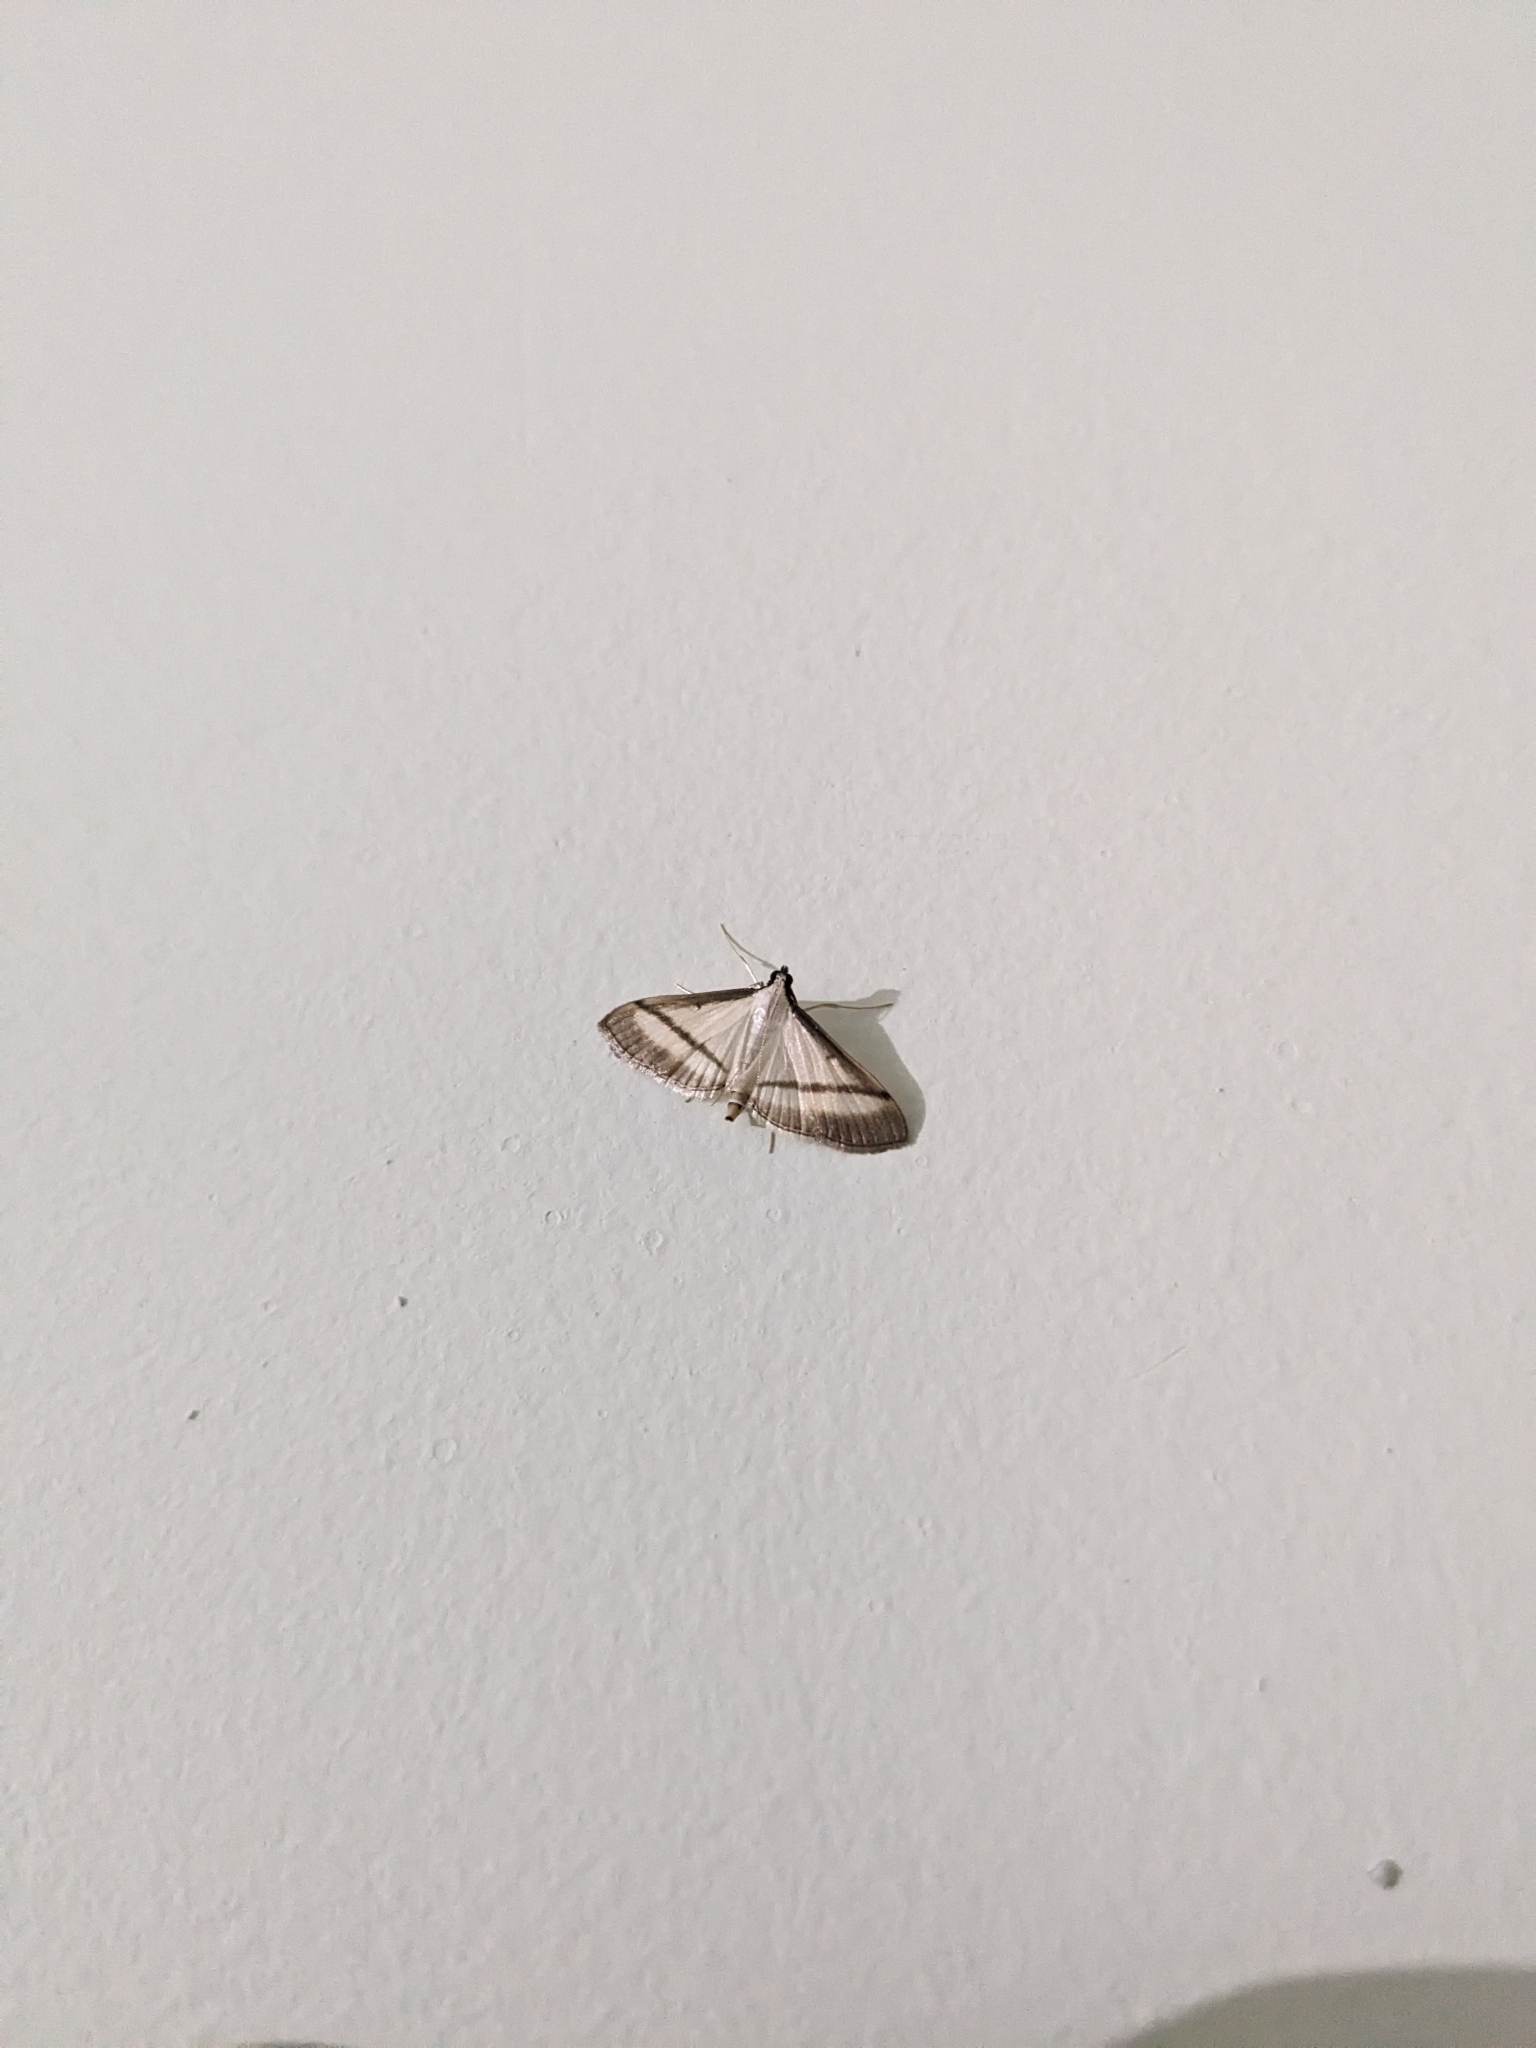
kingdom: Animalia
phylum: Arthropoda
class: Insecta
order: Lepidoptera
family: Crambidae
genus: Bradina
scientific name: Bradina diagonalis
